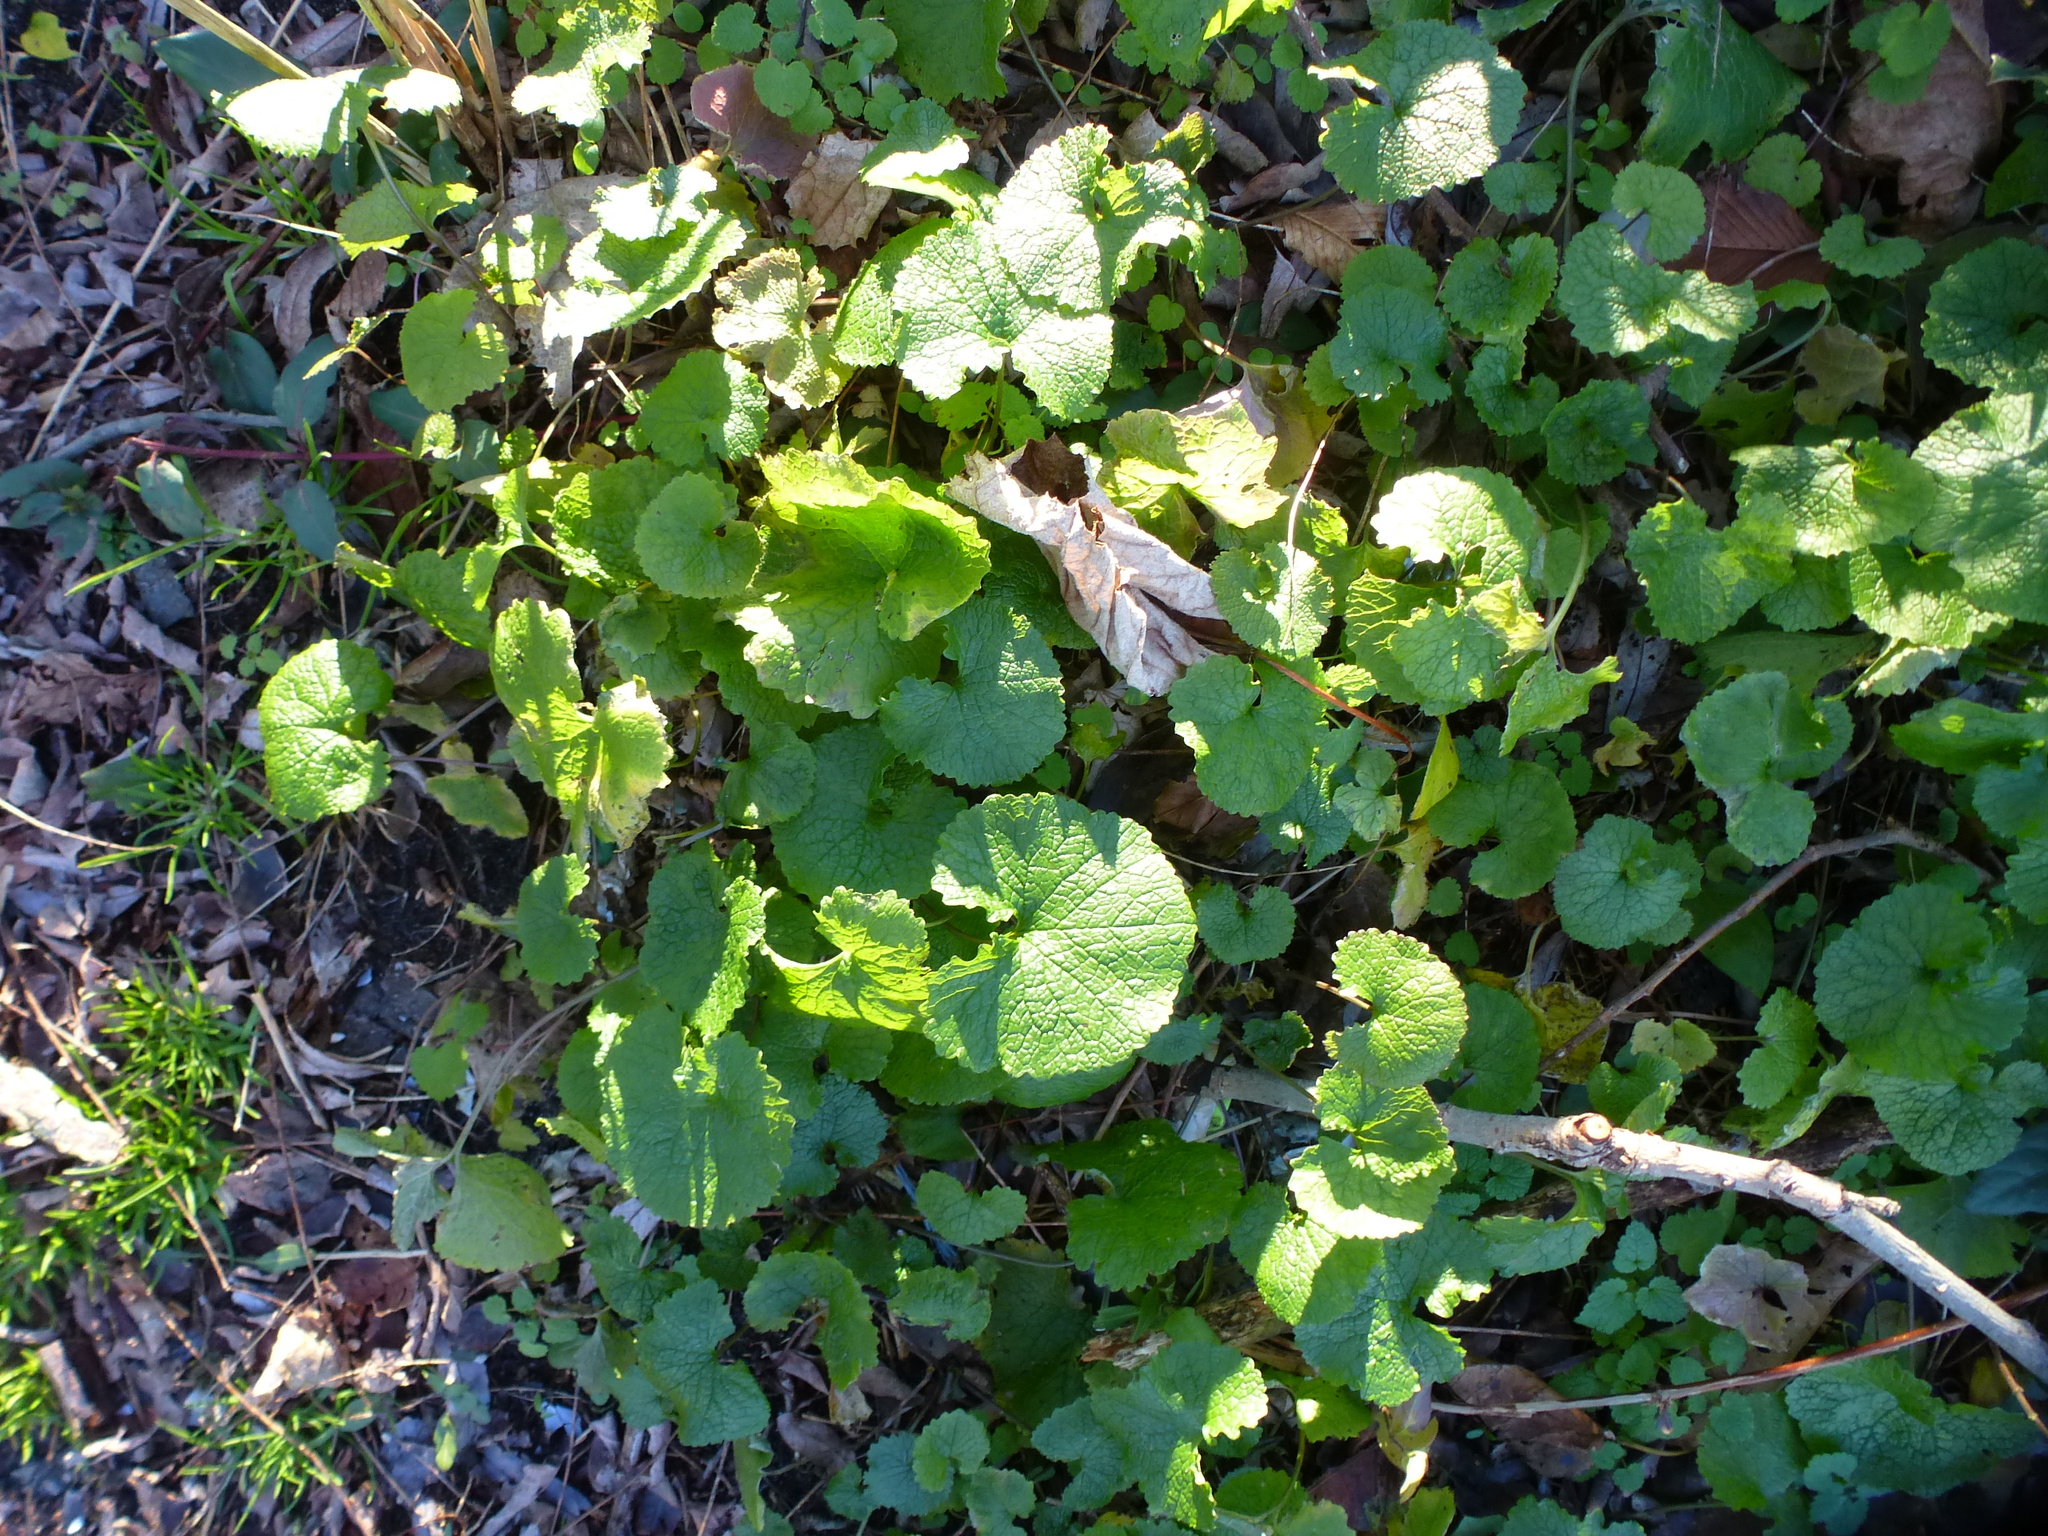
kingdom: Plantae
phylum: Tracheophyta
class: Magnoliopsida
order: Brassicales
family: Brassicaceae
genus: Alliaria
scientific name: Alliaria petiolata
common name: Garlic mustard
